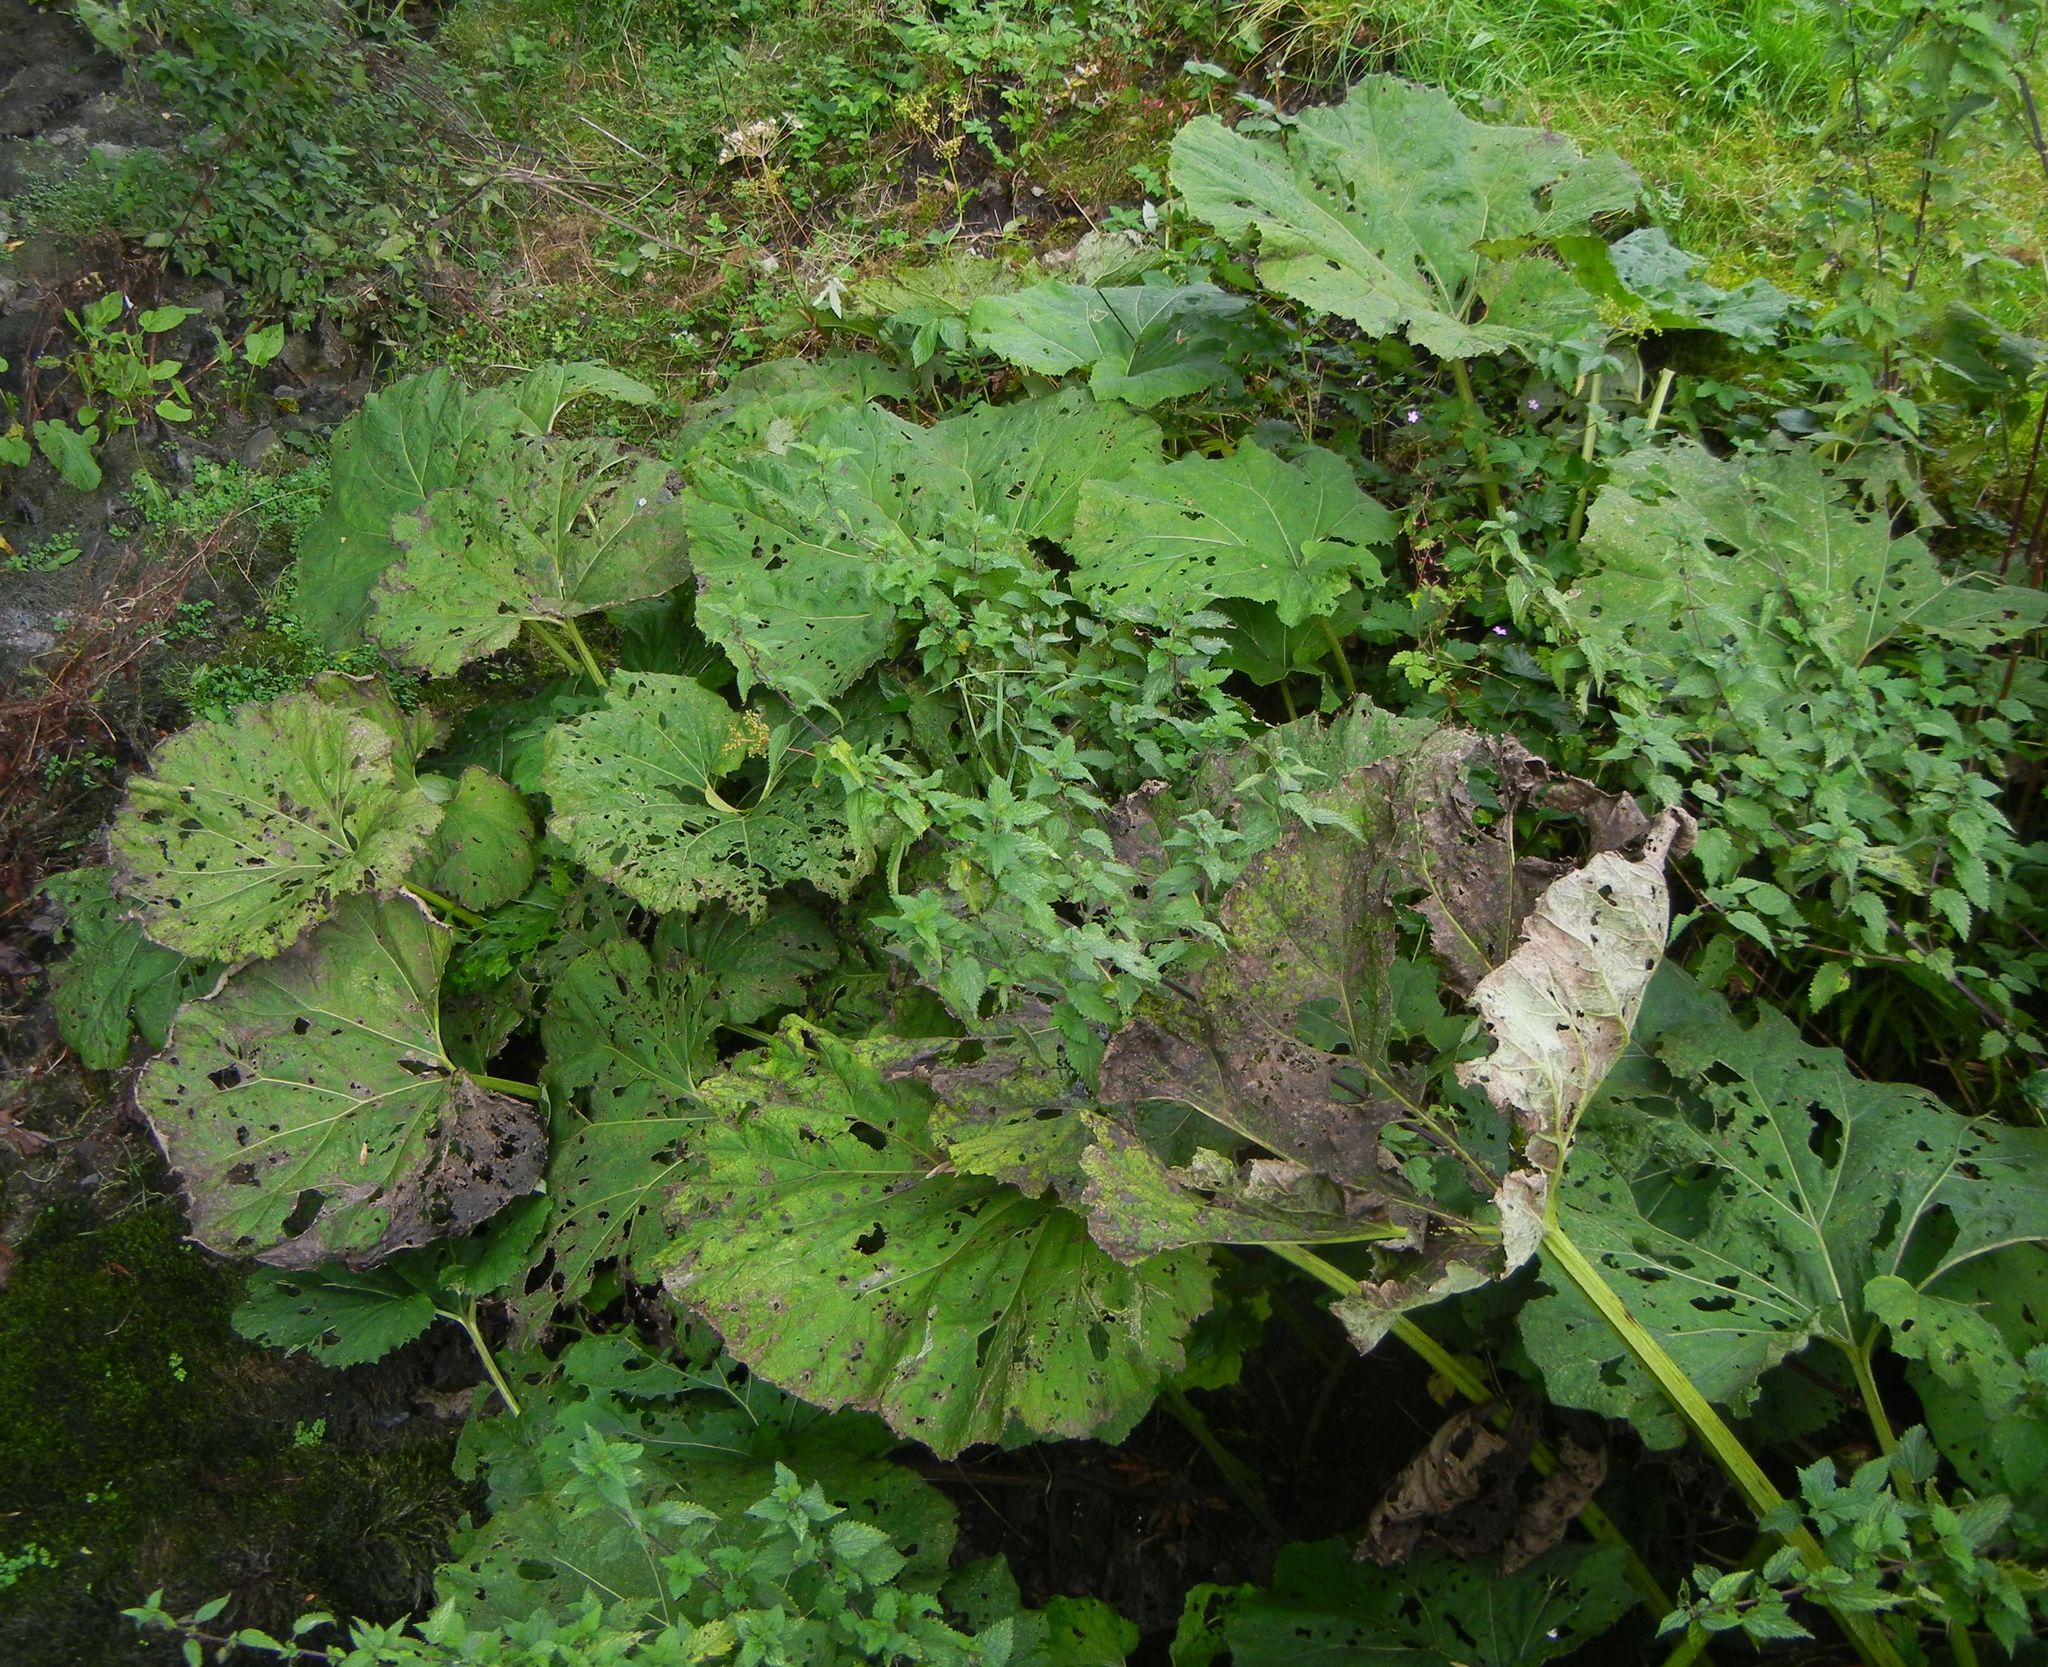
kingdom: Plantae
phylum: Tracheophyta
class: Magnoliopsida
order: Asterales
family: Asteraceae
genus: Petasites
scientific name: Petasites hybridus
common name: Butterbur
